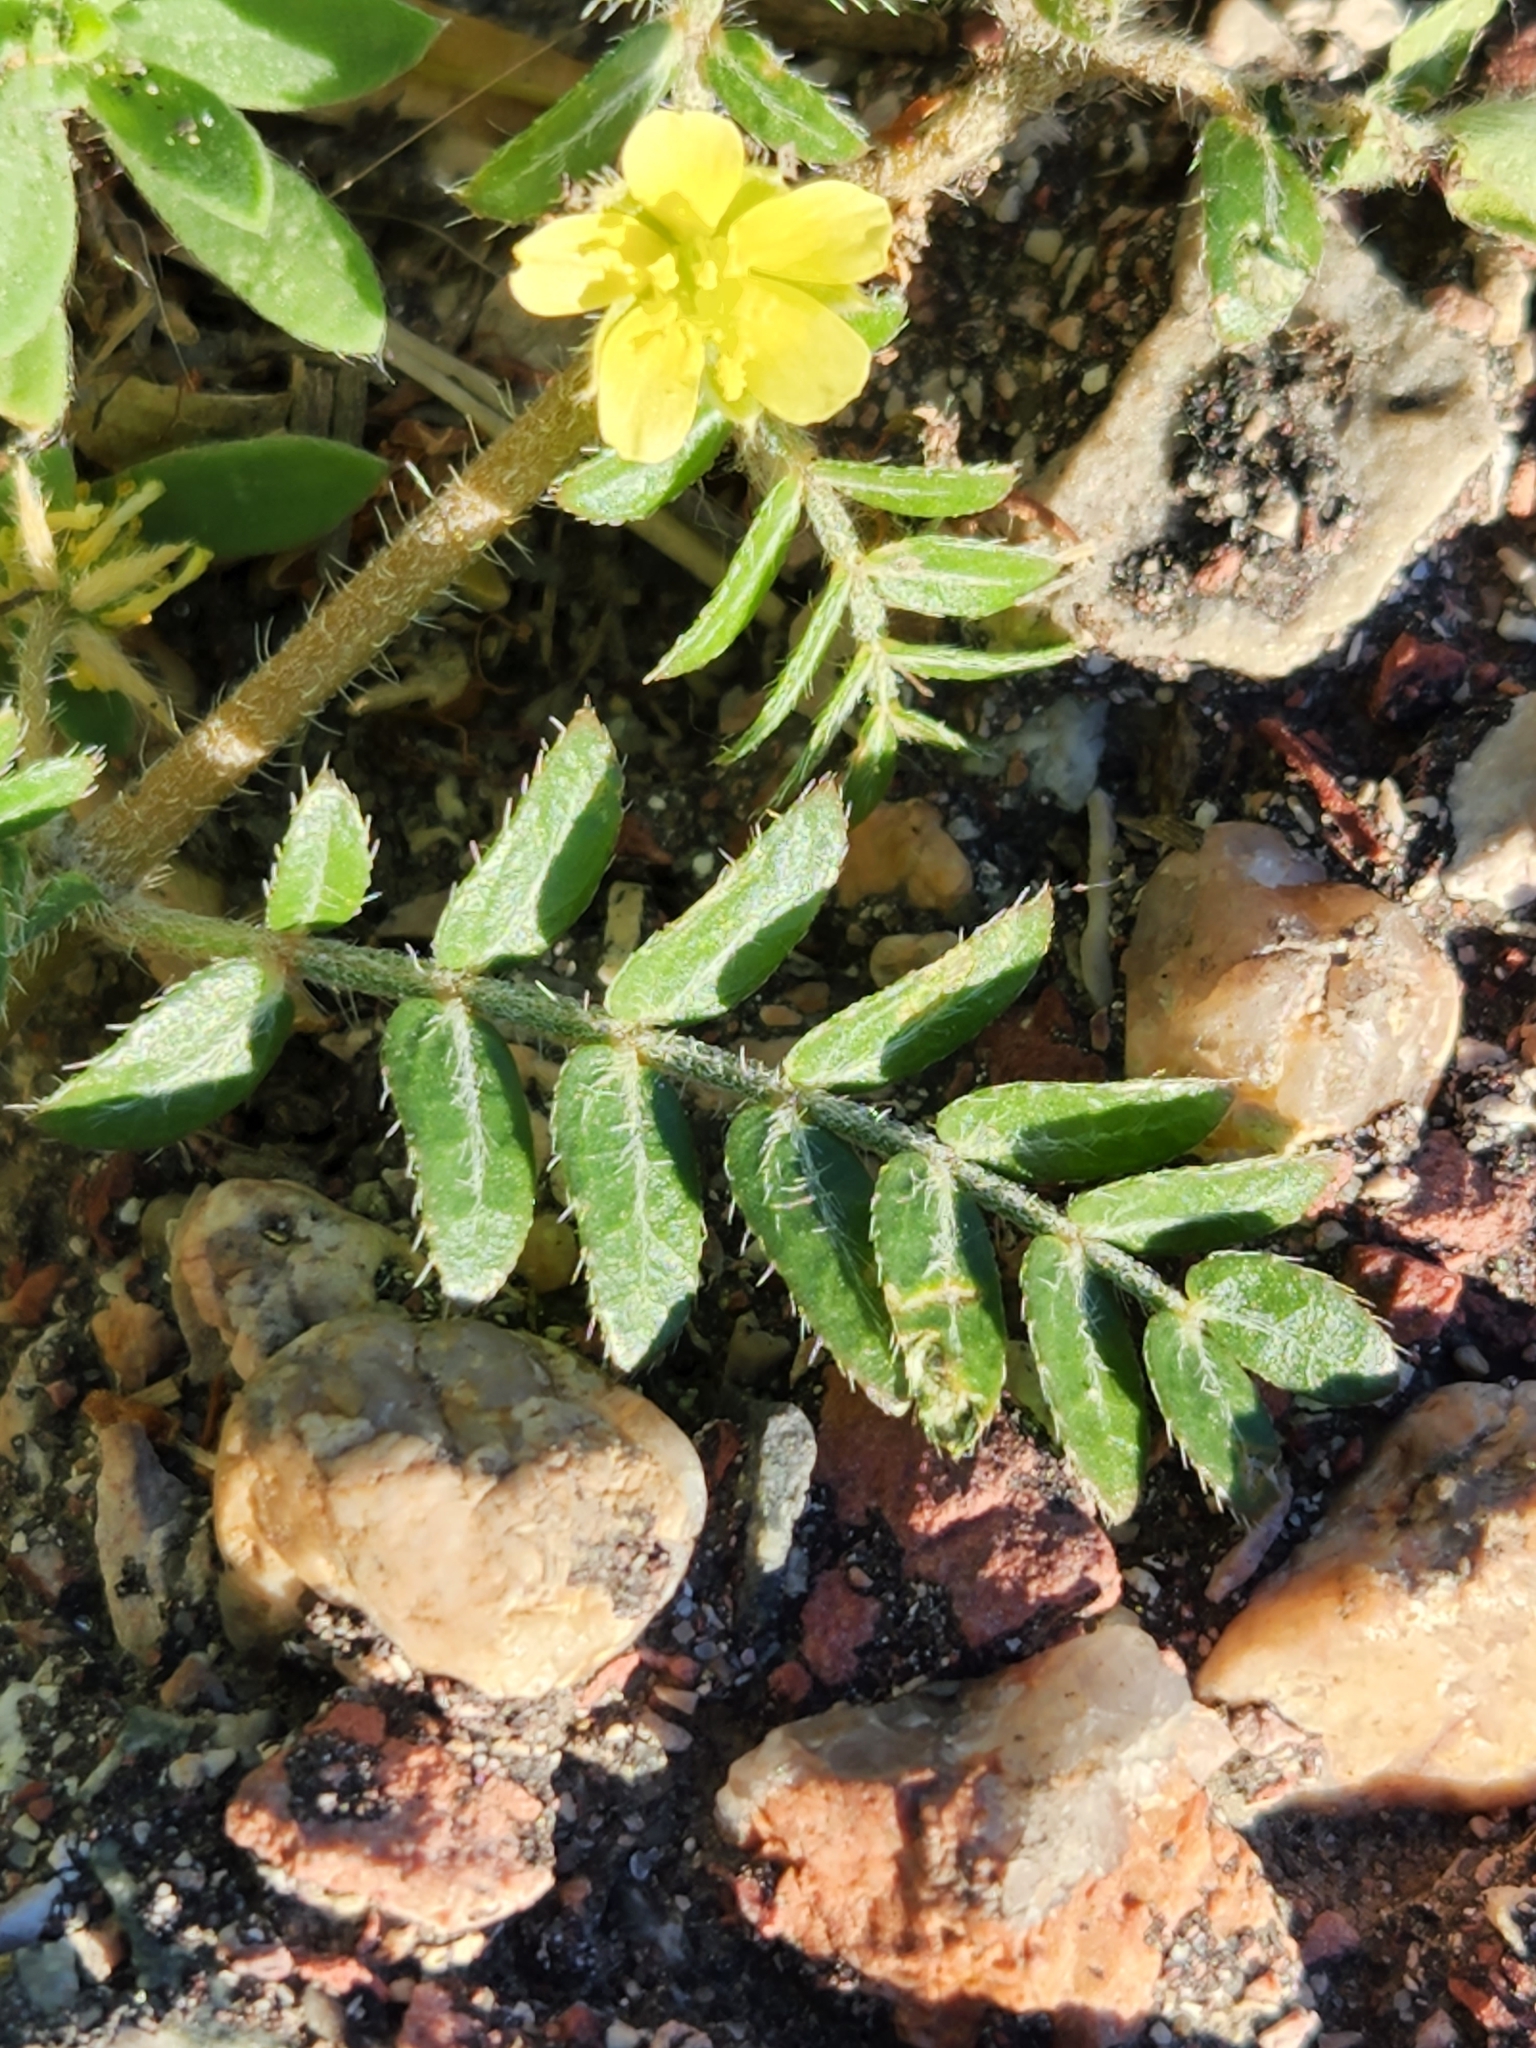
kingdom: Plantae
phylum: Tracheophyta
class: Magnoliopsida
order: Zygophyllales
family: Zygophyllaceae
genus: Tribulus
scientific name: Tribulus terrestris
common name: Puncturevine
